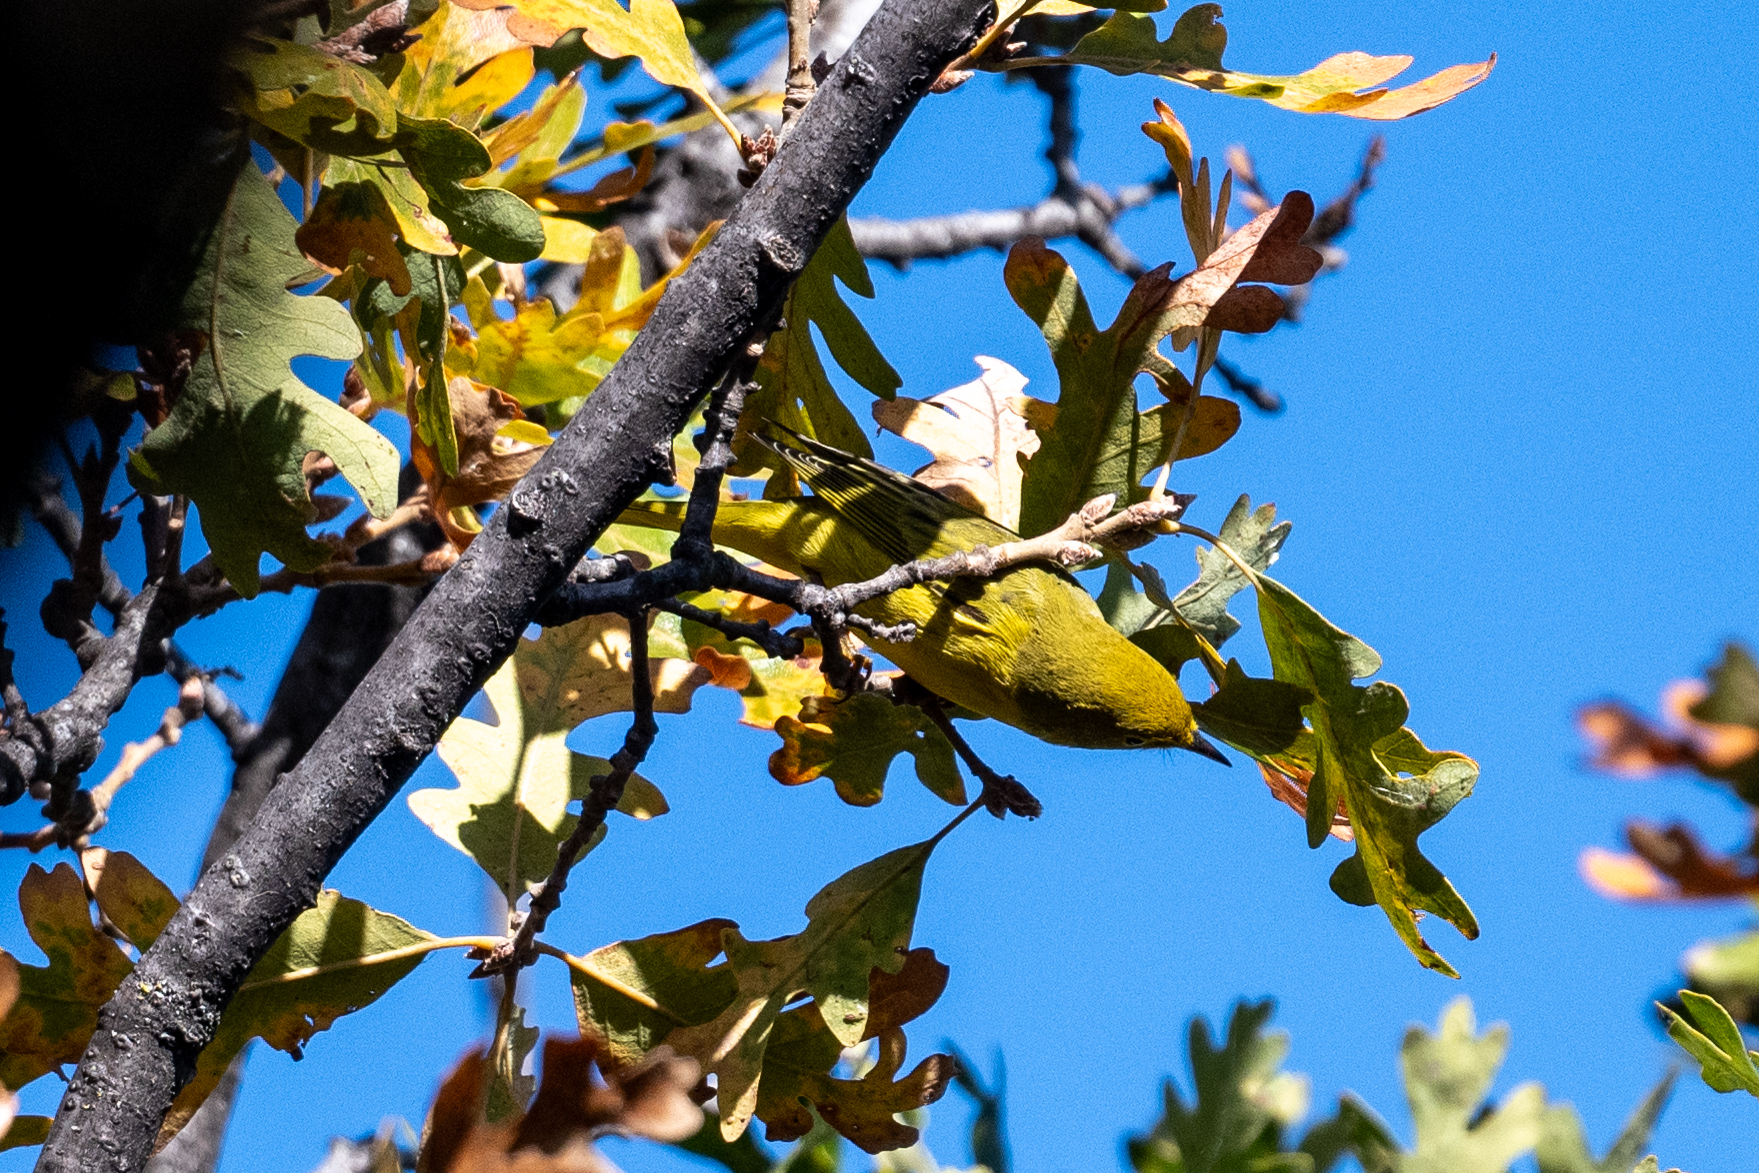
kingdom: Animalia
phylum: Chordata
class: Aves
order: Passeriformes
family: Parulidae
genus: Setophaga
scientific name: Setophaga petechia
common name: Yellow warbler
